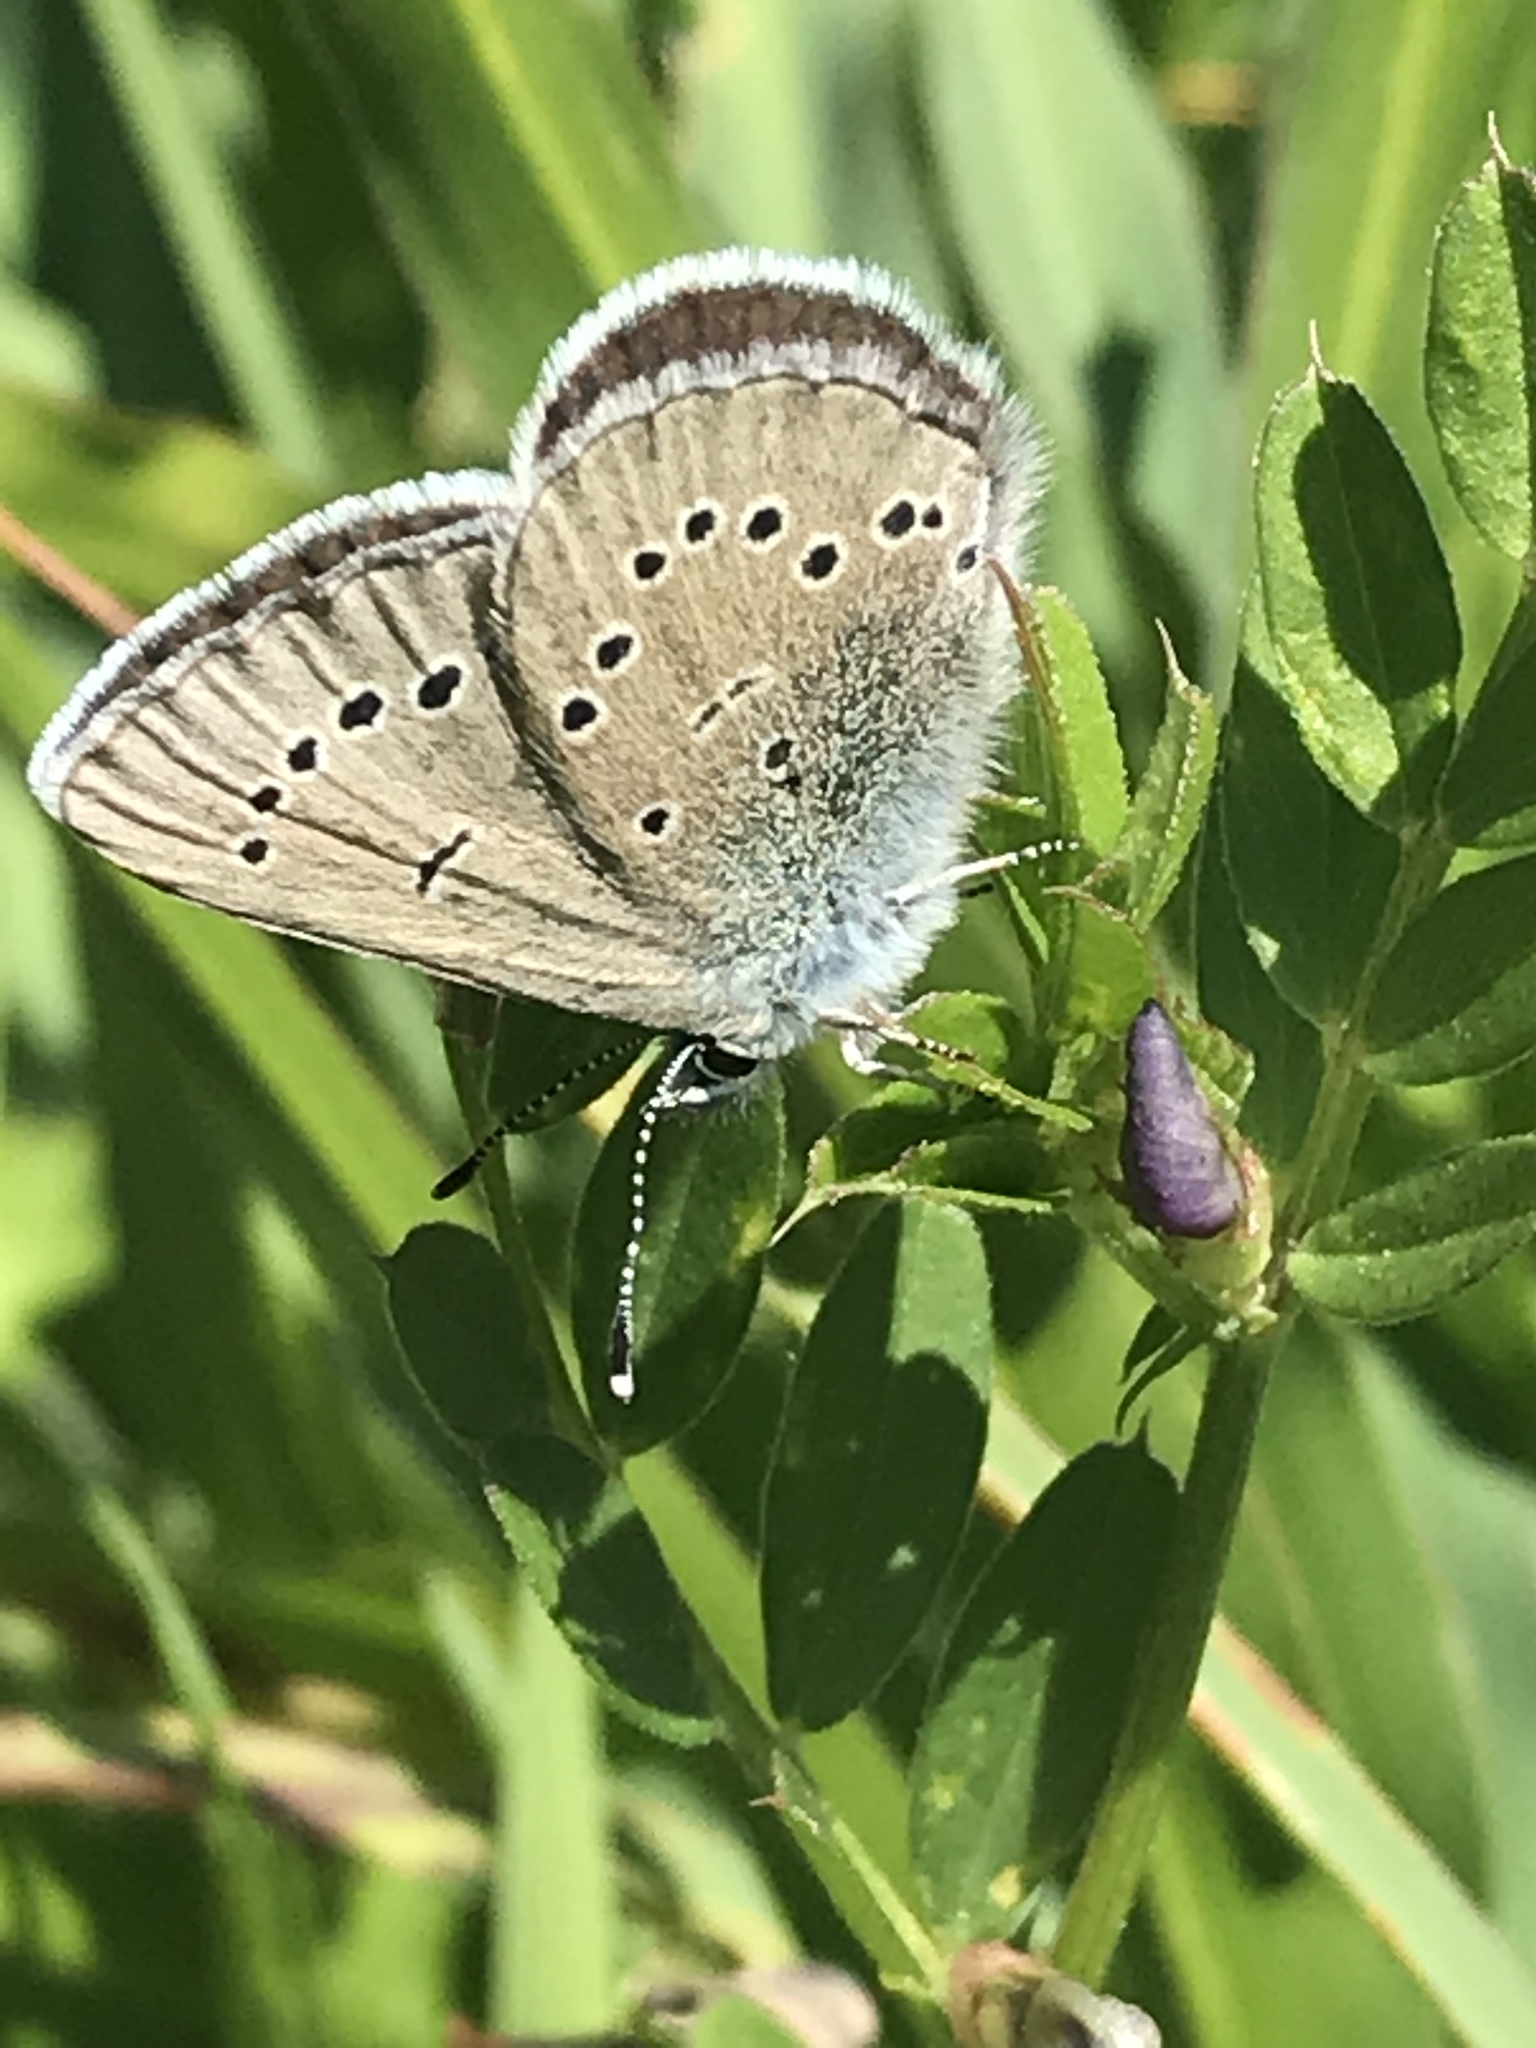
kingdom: Animalia
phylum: Arthropoda
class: Insecta
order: Lepidoptera
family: Lycaenidae
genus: Glaucopsyche
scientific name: Glaucopsyche lygdamus
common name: Silvery blue
